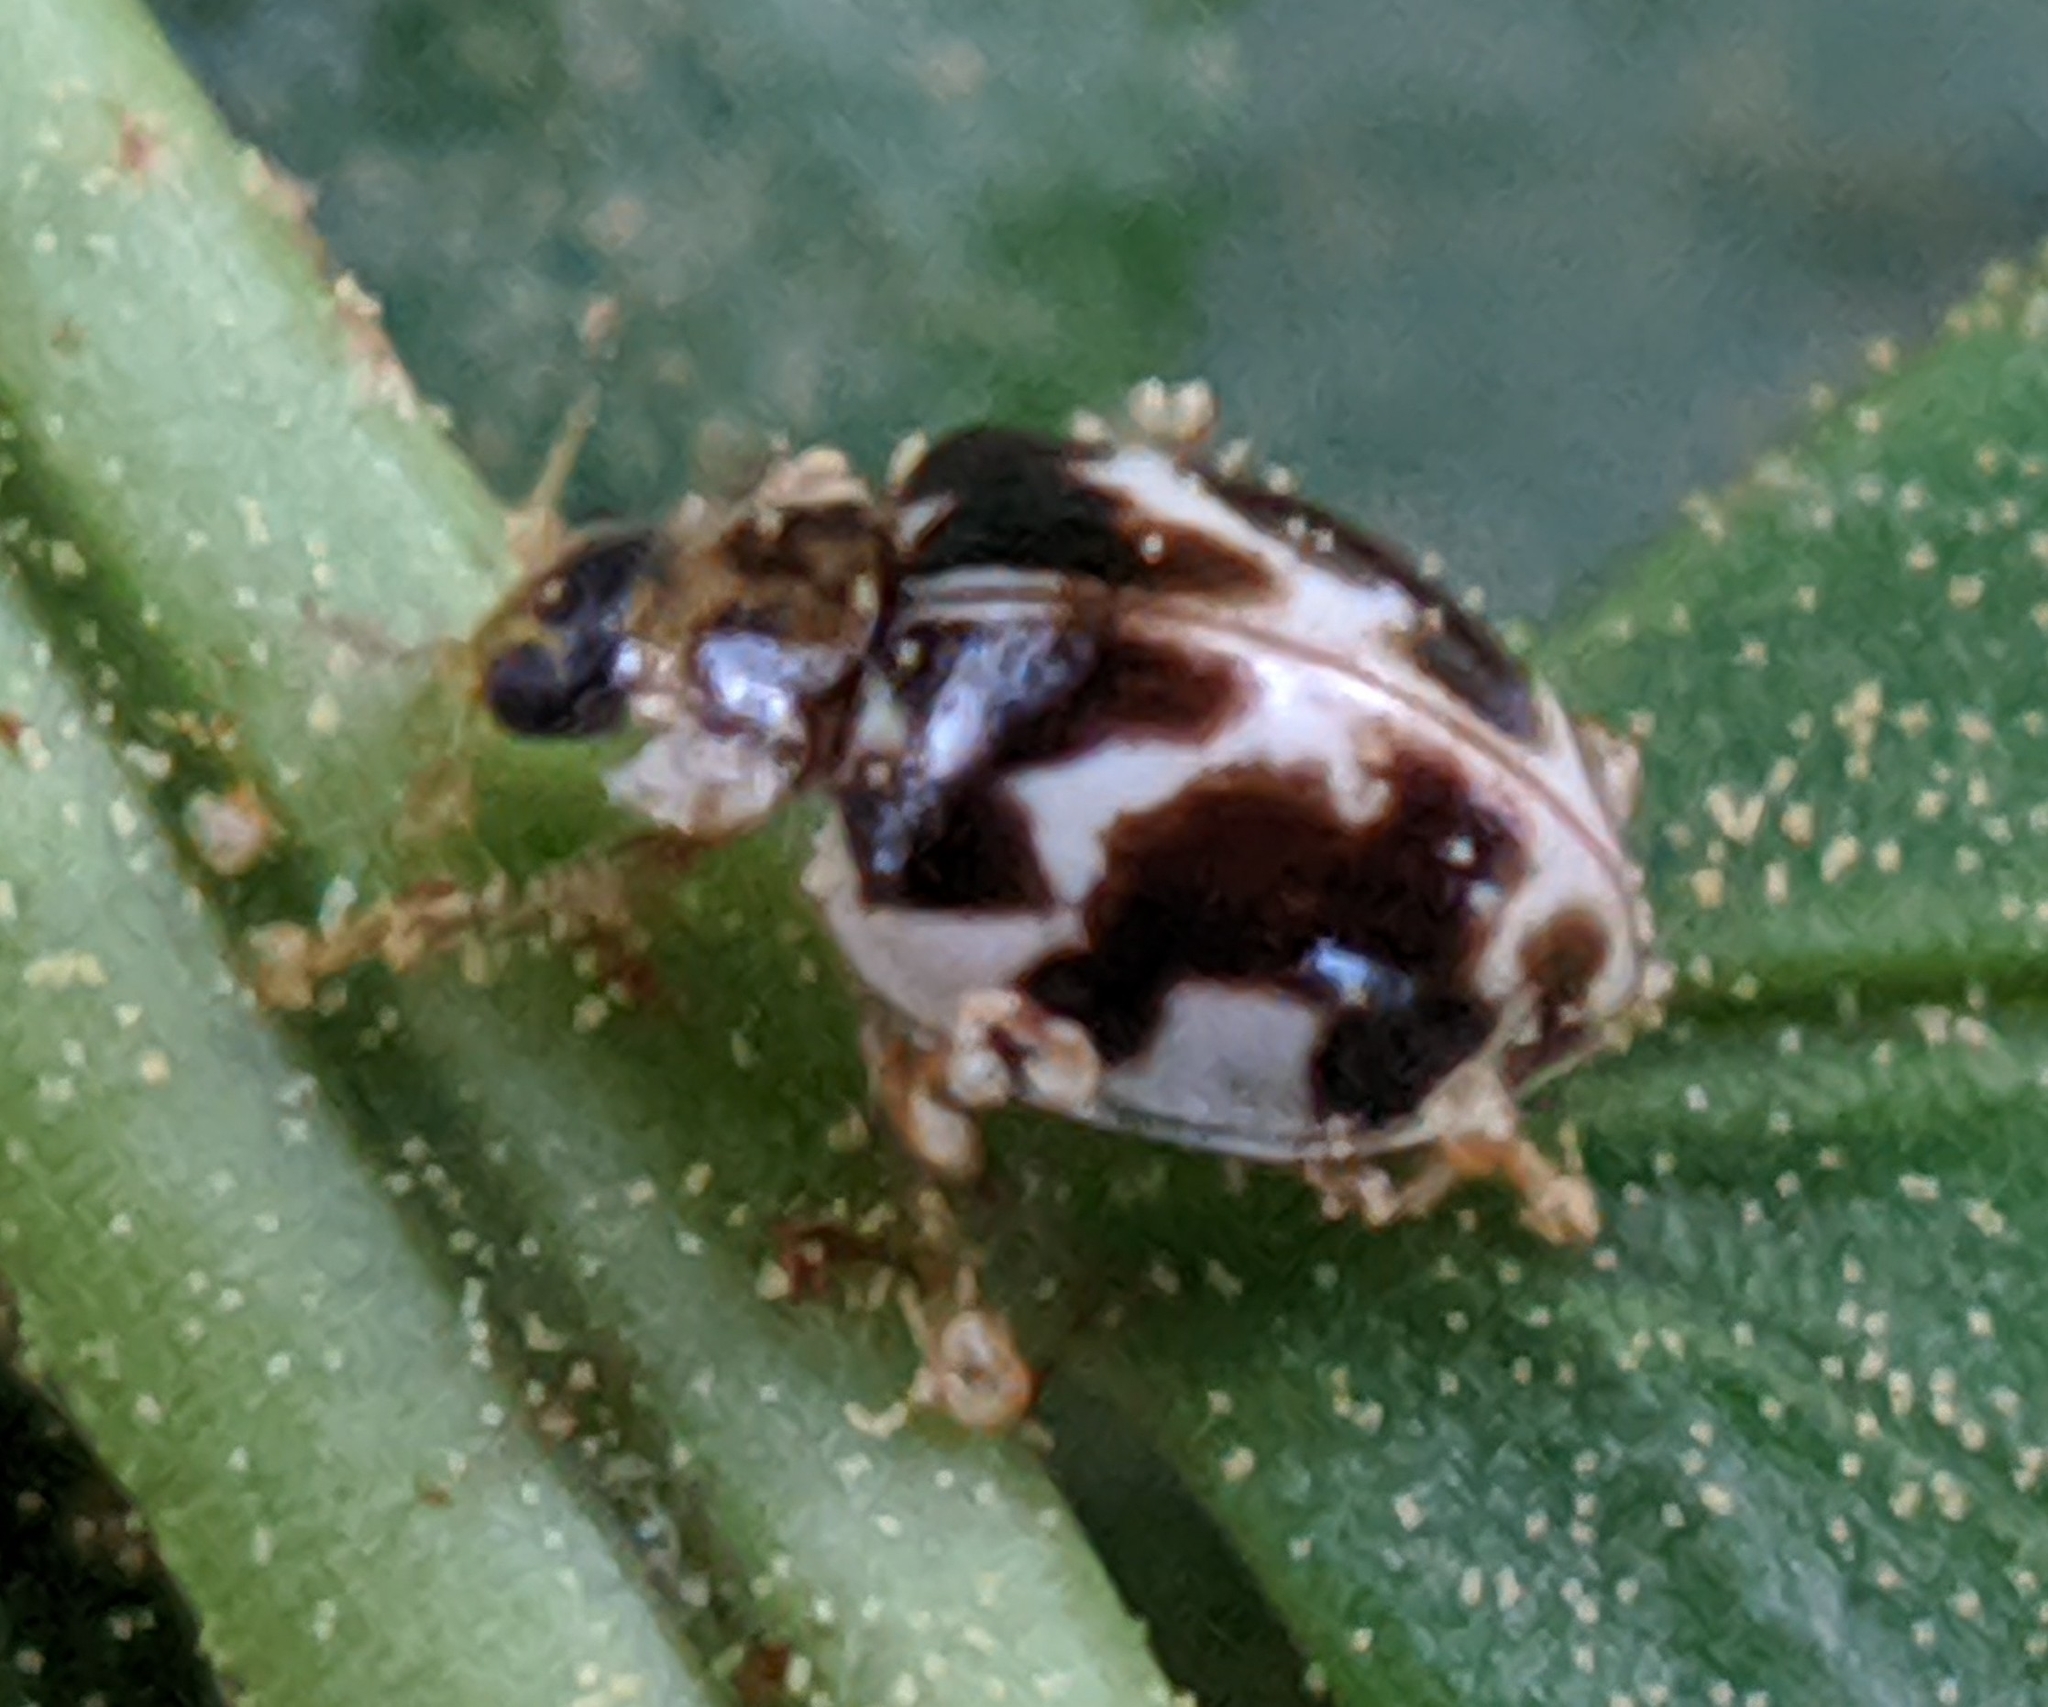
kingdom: Animalia
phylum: Arthropoda
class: Insecta
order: Coleoptera
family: Coccinellidae
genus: Psyllobora
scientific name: Psyllobora vigintimaculata
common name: Ladybird beetle
